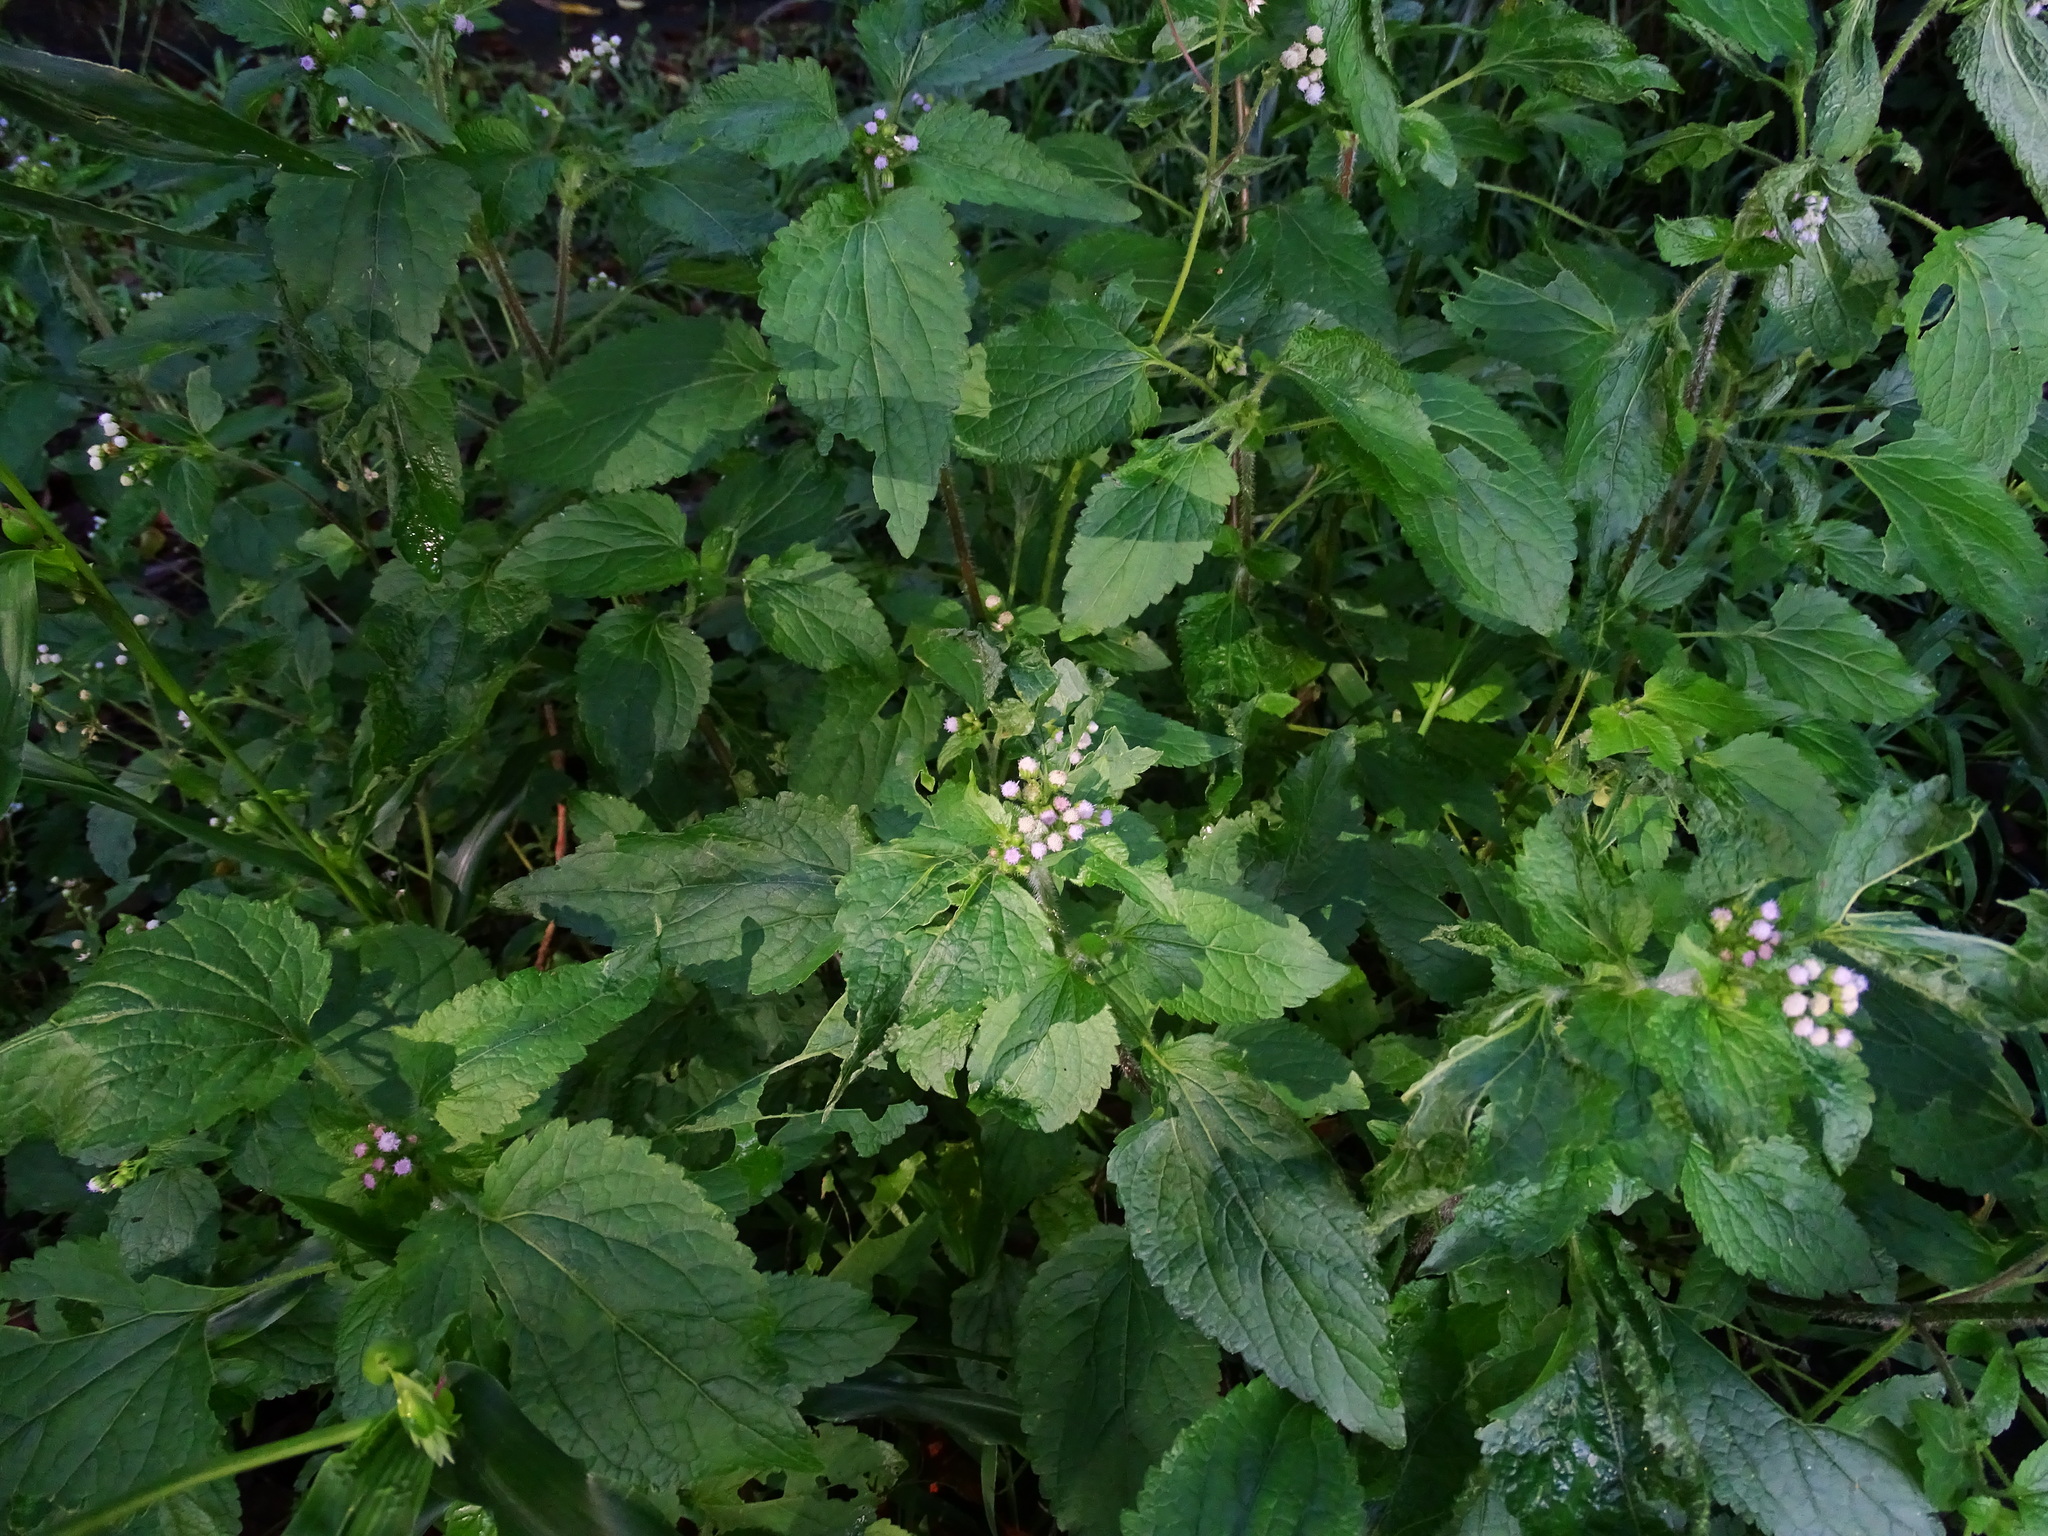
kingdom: Plantae
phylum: Tracheophyta
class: Magnoliopsida
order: Asterales
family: Asteraceae
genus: Ageratum
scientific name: Ageratum conyzoides
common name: Tropical whiteweed
